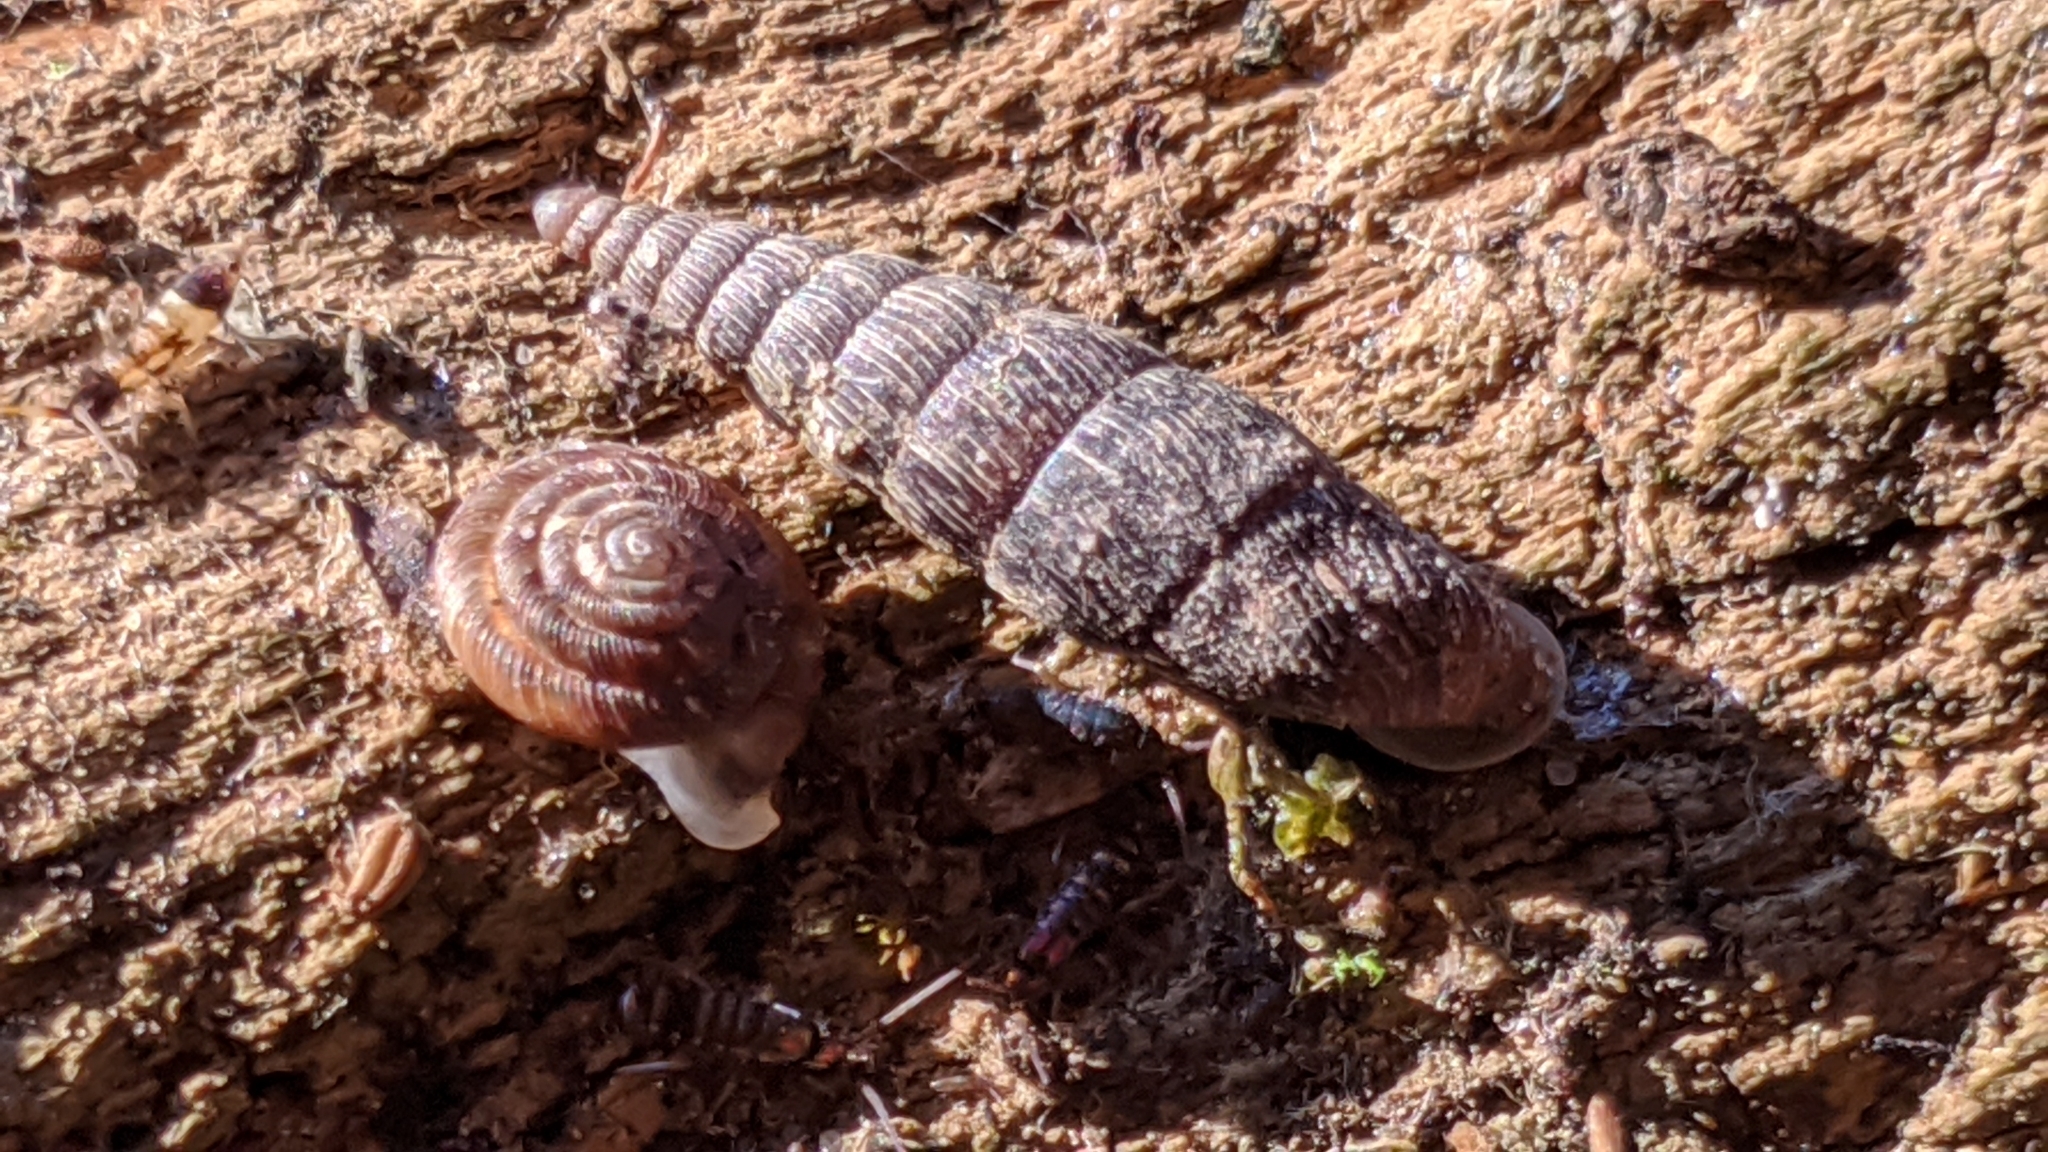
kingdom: Animalia
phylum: Mollusca
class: Gastropoda
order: Stylommatophora
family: Discidae
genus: Discus
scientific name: Discus rotundatus
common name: Rounded snail
